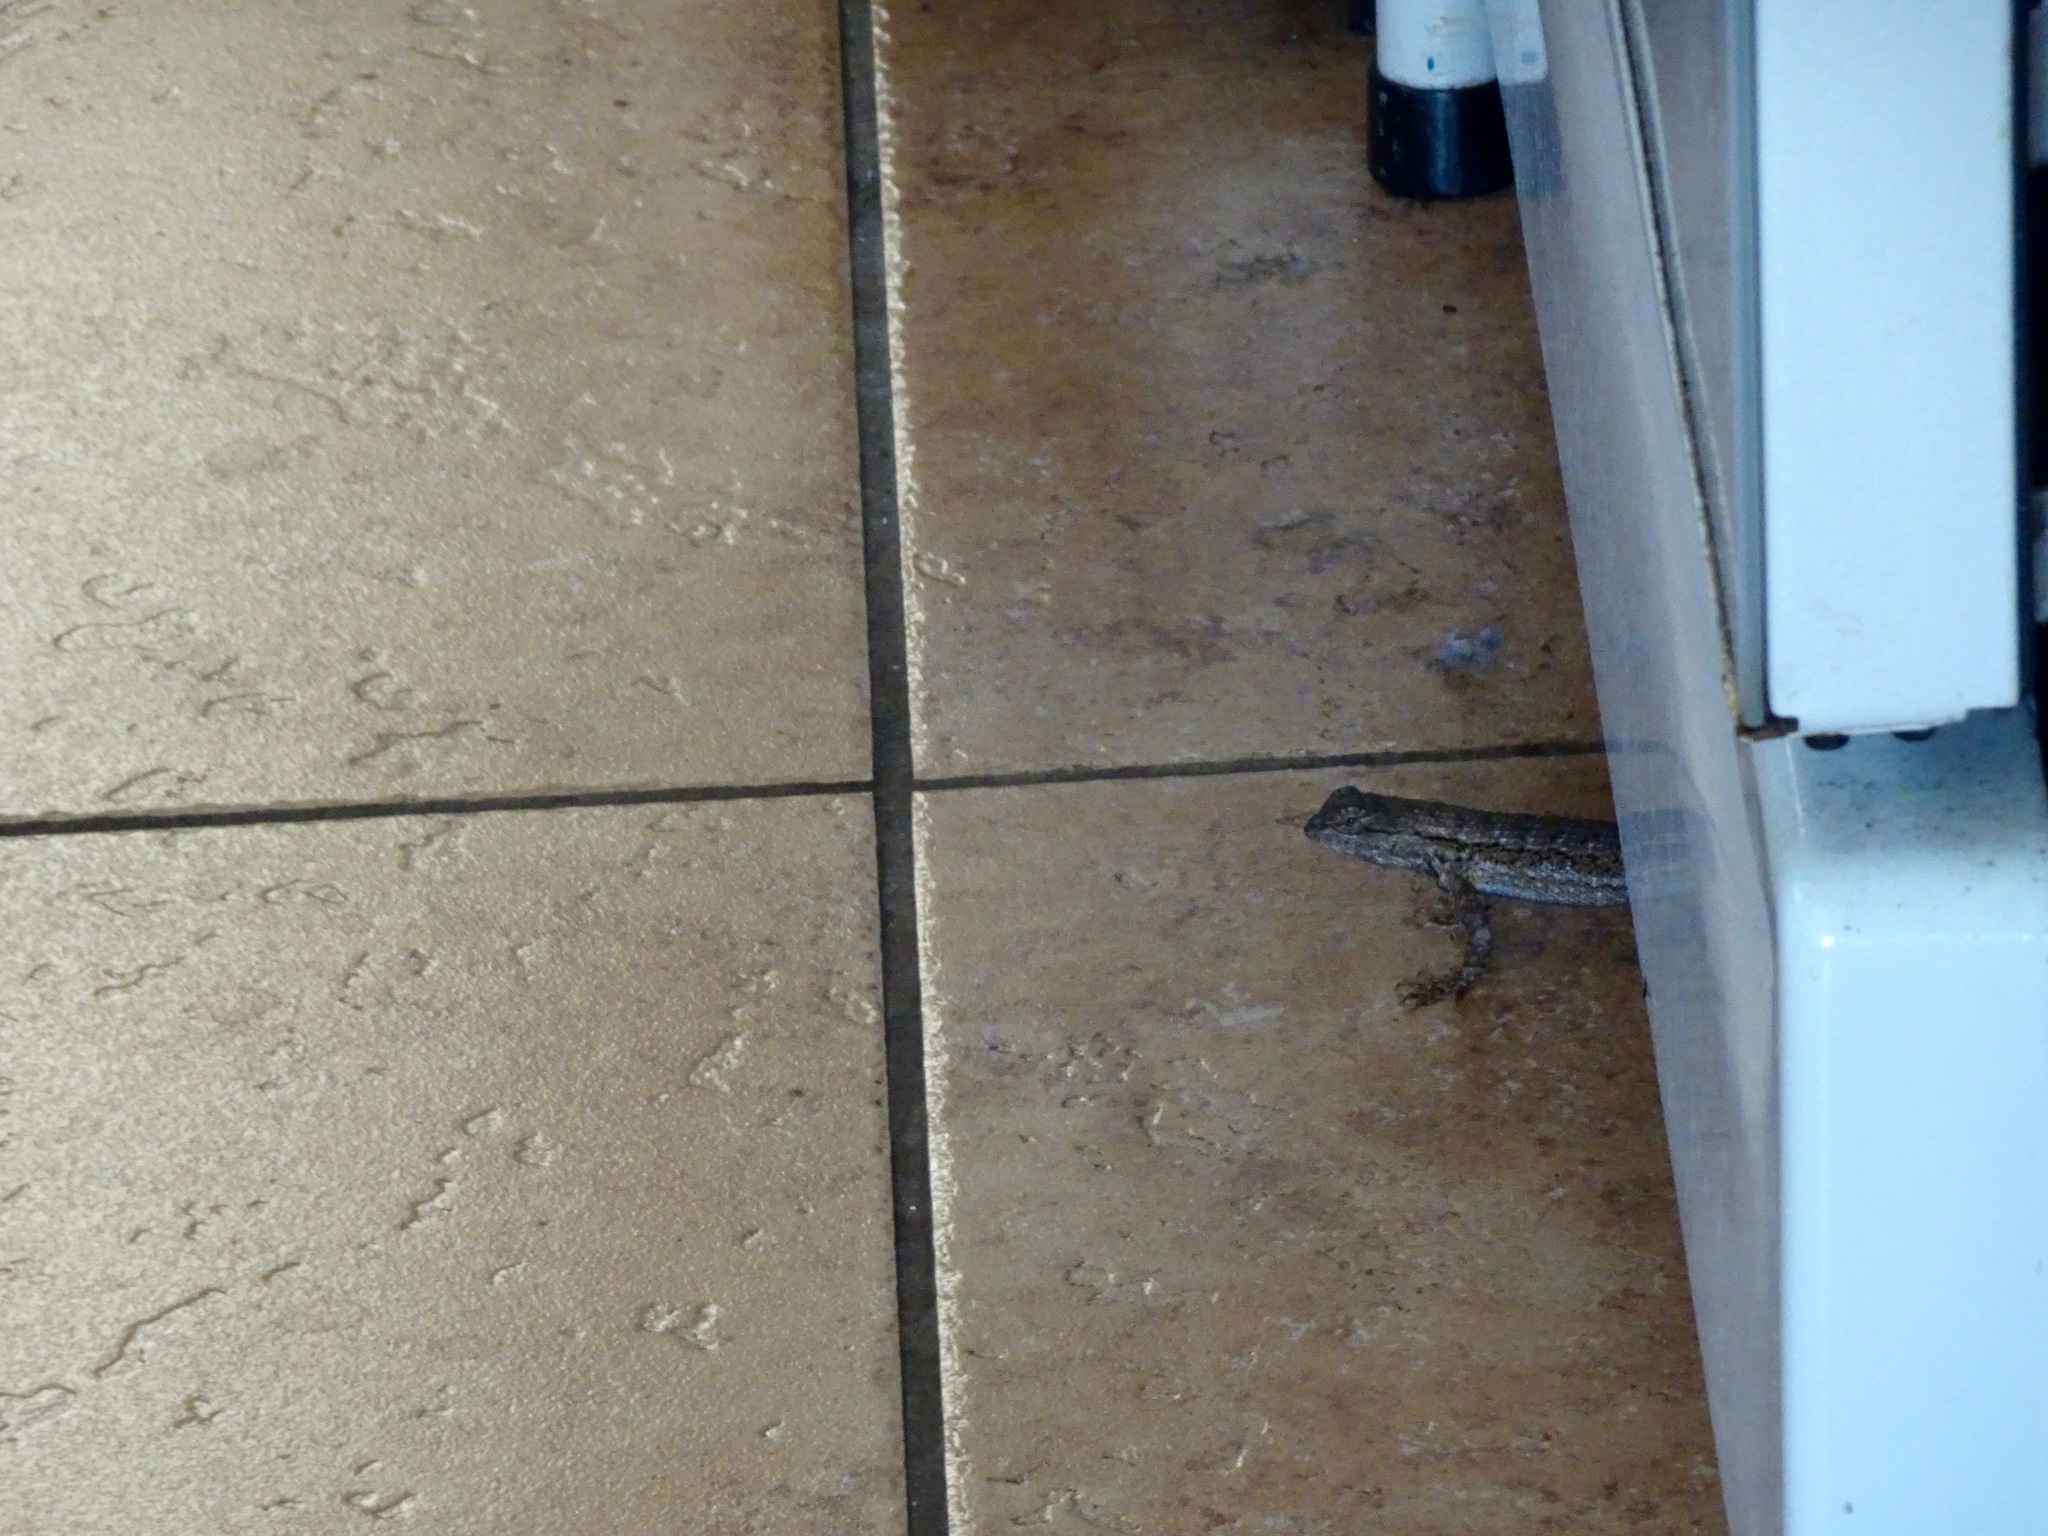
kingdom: Animalia
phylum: Chordata
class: Squamata
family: Phrynosomatidae
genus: Sceloporus
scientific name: Sceloporus occidentalis
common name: Western fence lizard
